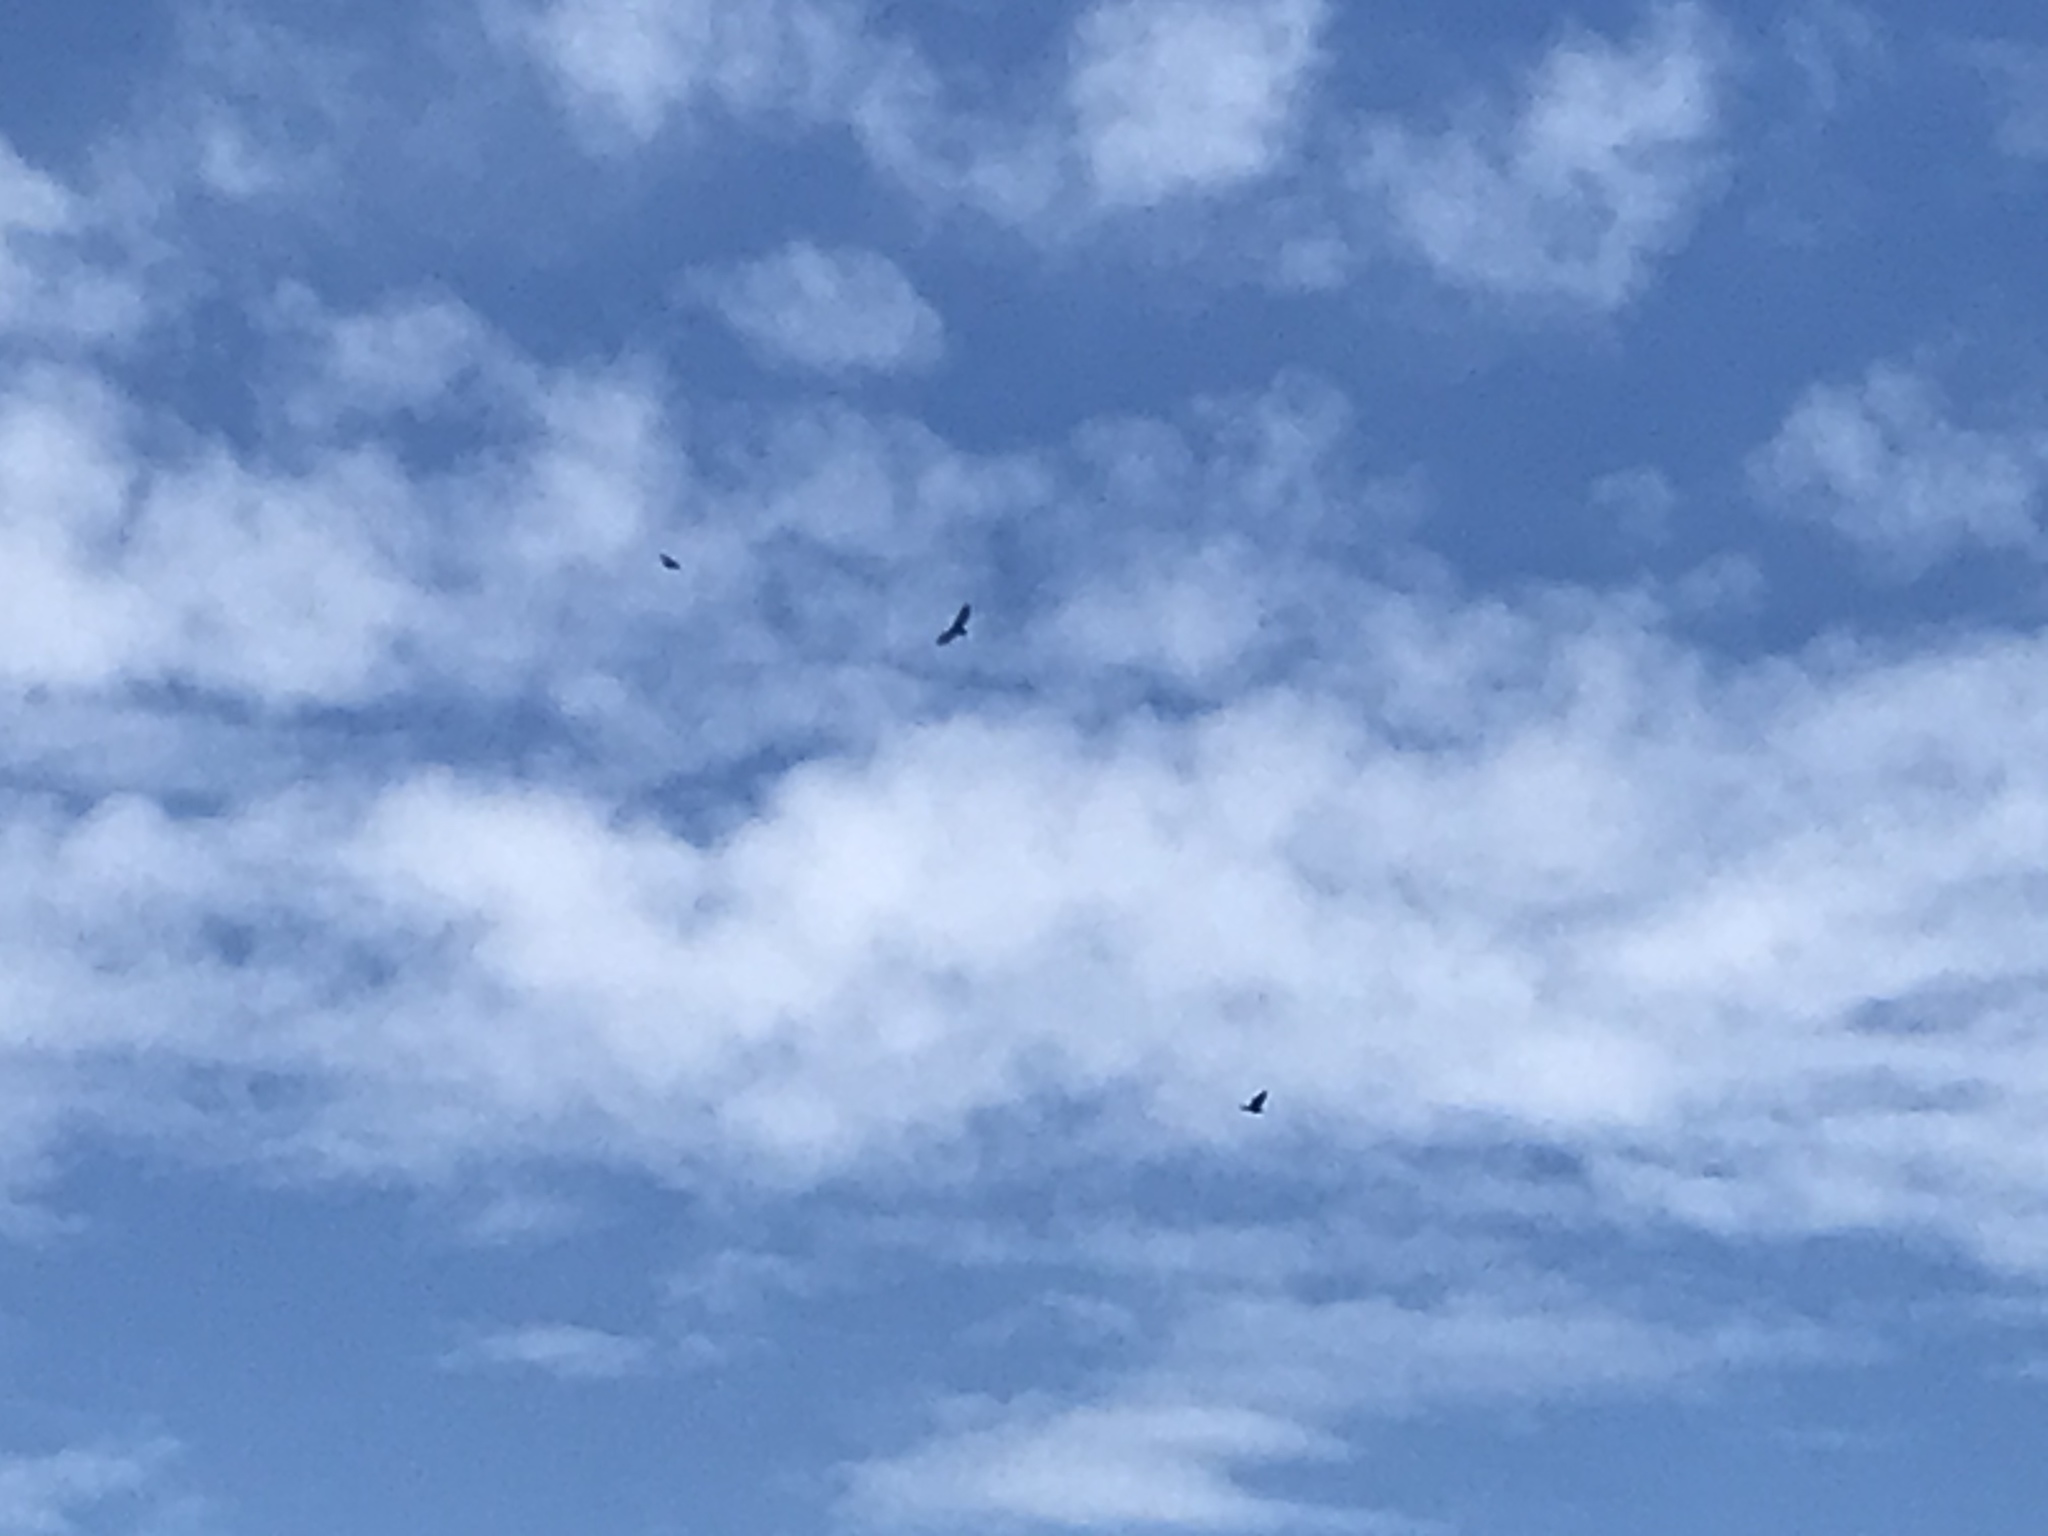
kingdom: Animalia
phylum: Chordata
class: Aves
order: Accipitriformes
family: Cathartidae
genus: Cathartes
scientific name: Cathartes aura
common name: Turkey vulture
